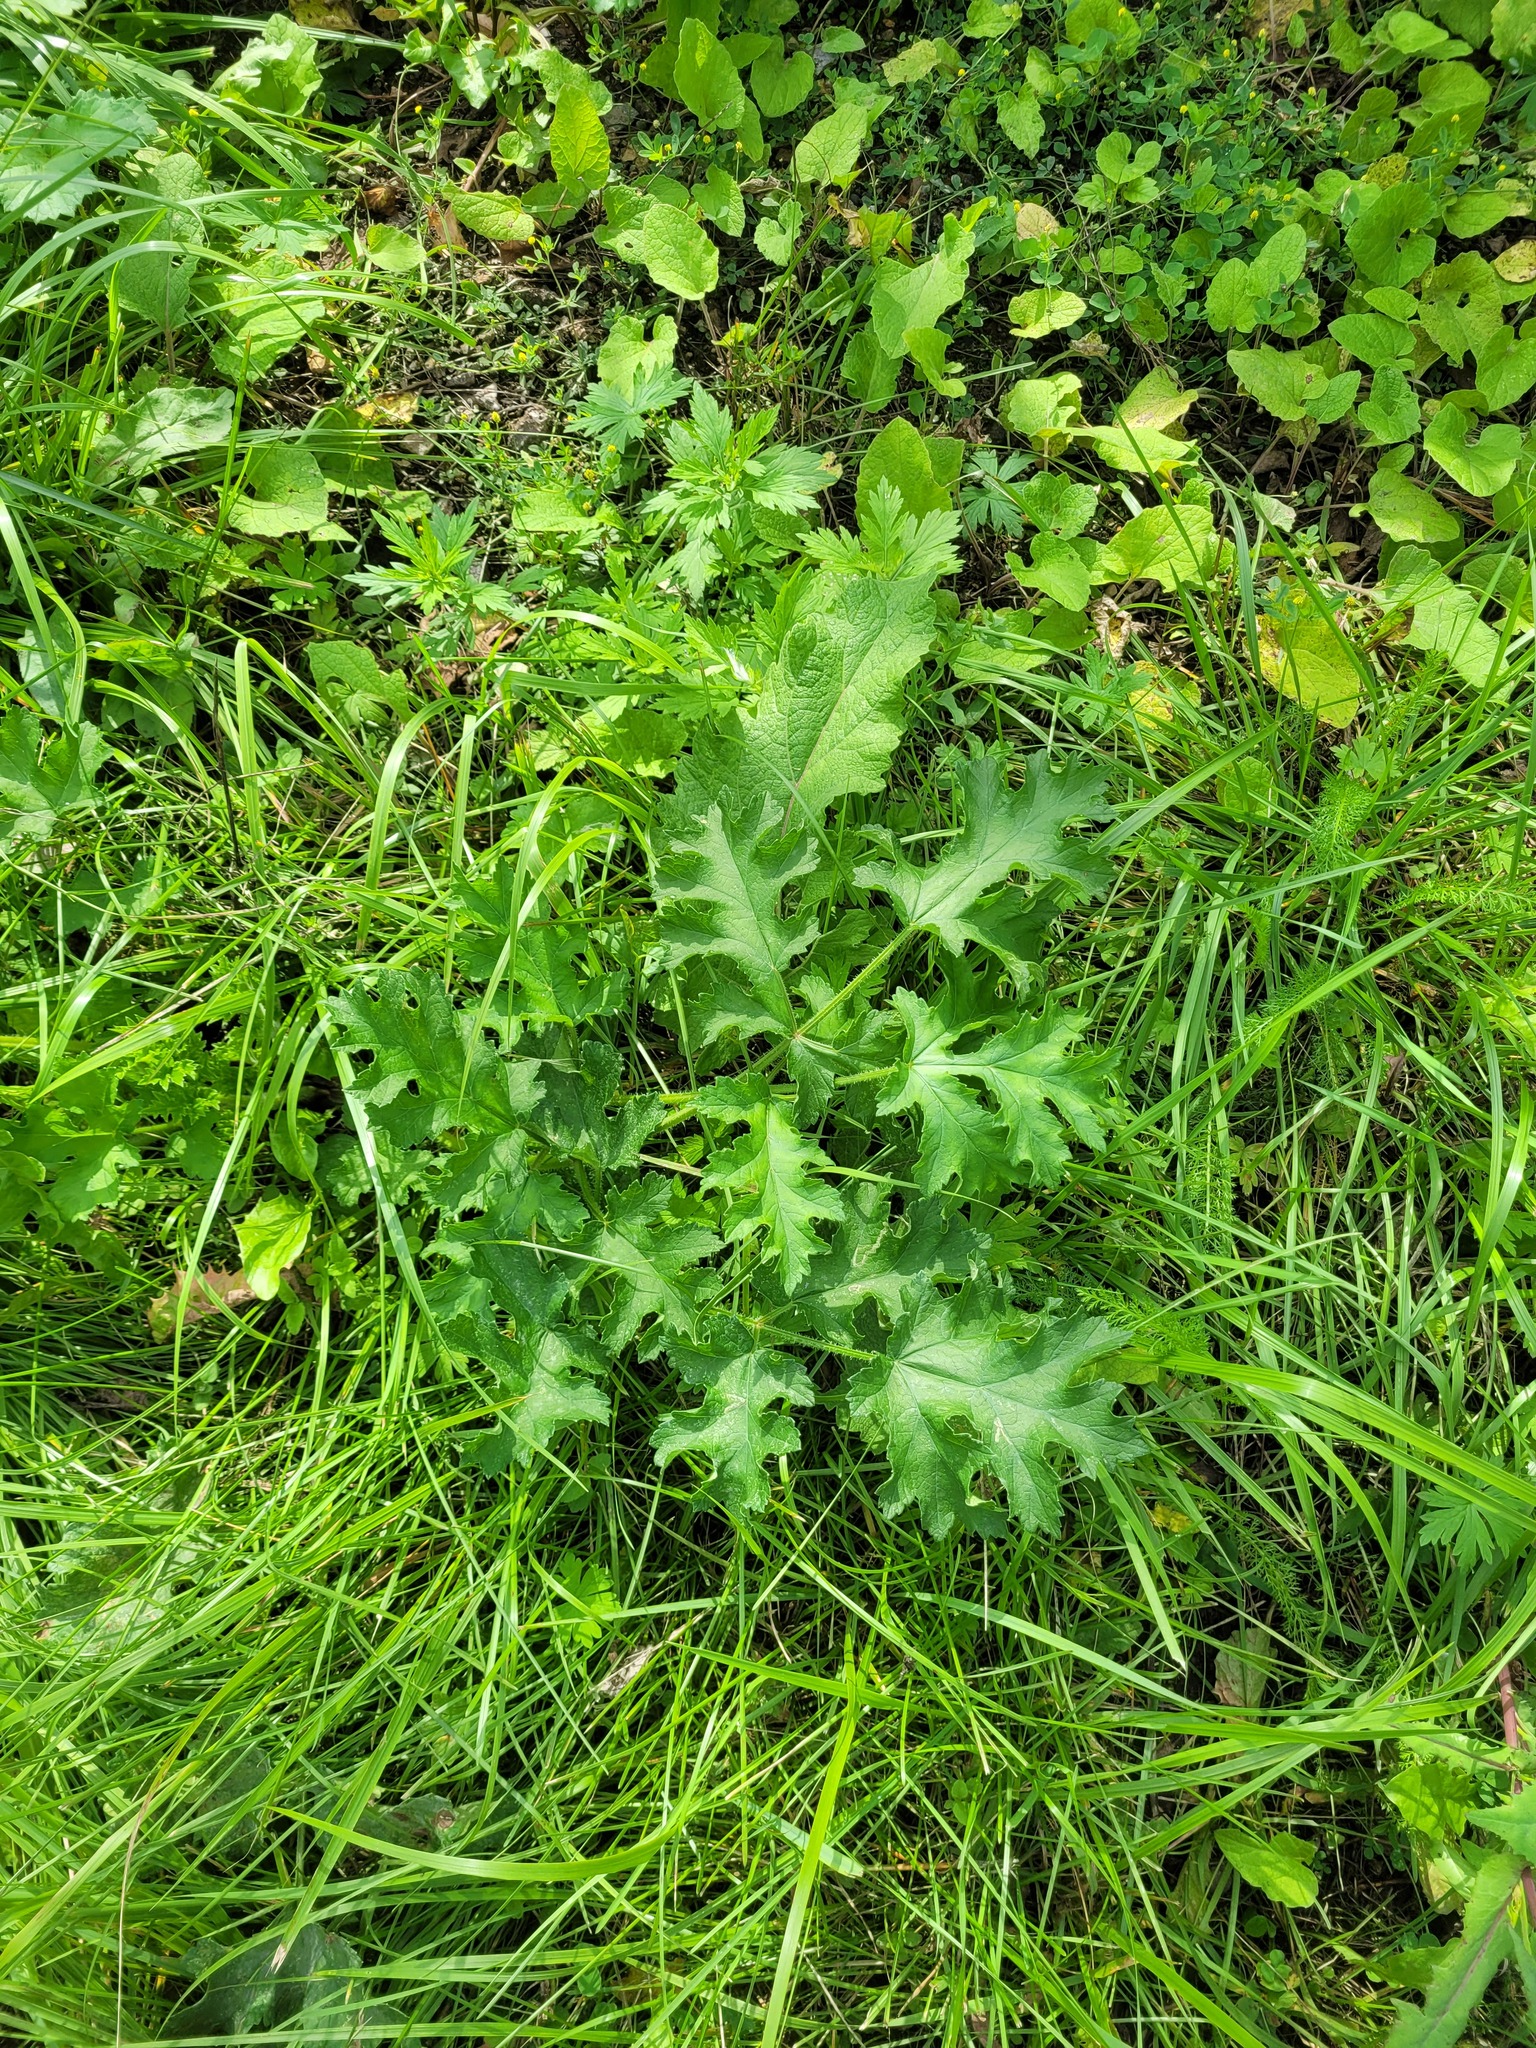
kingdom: Plantae
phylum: Tracheophyta
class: Magnoliopsida
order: Apiales
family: Apiaceae
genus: Heracleum
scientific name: Heracleum sphondylium
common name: Hogweed
